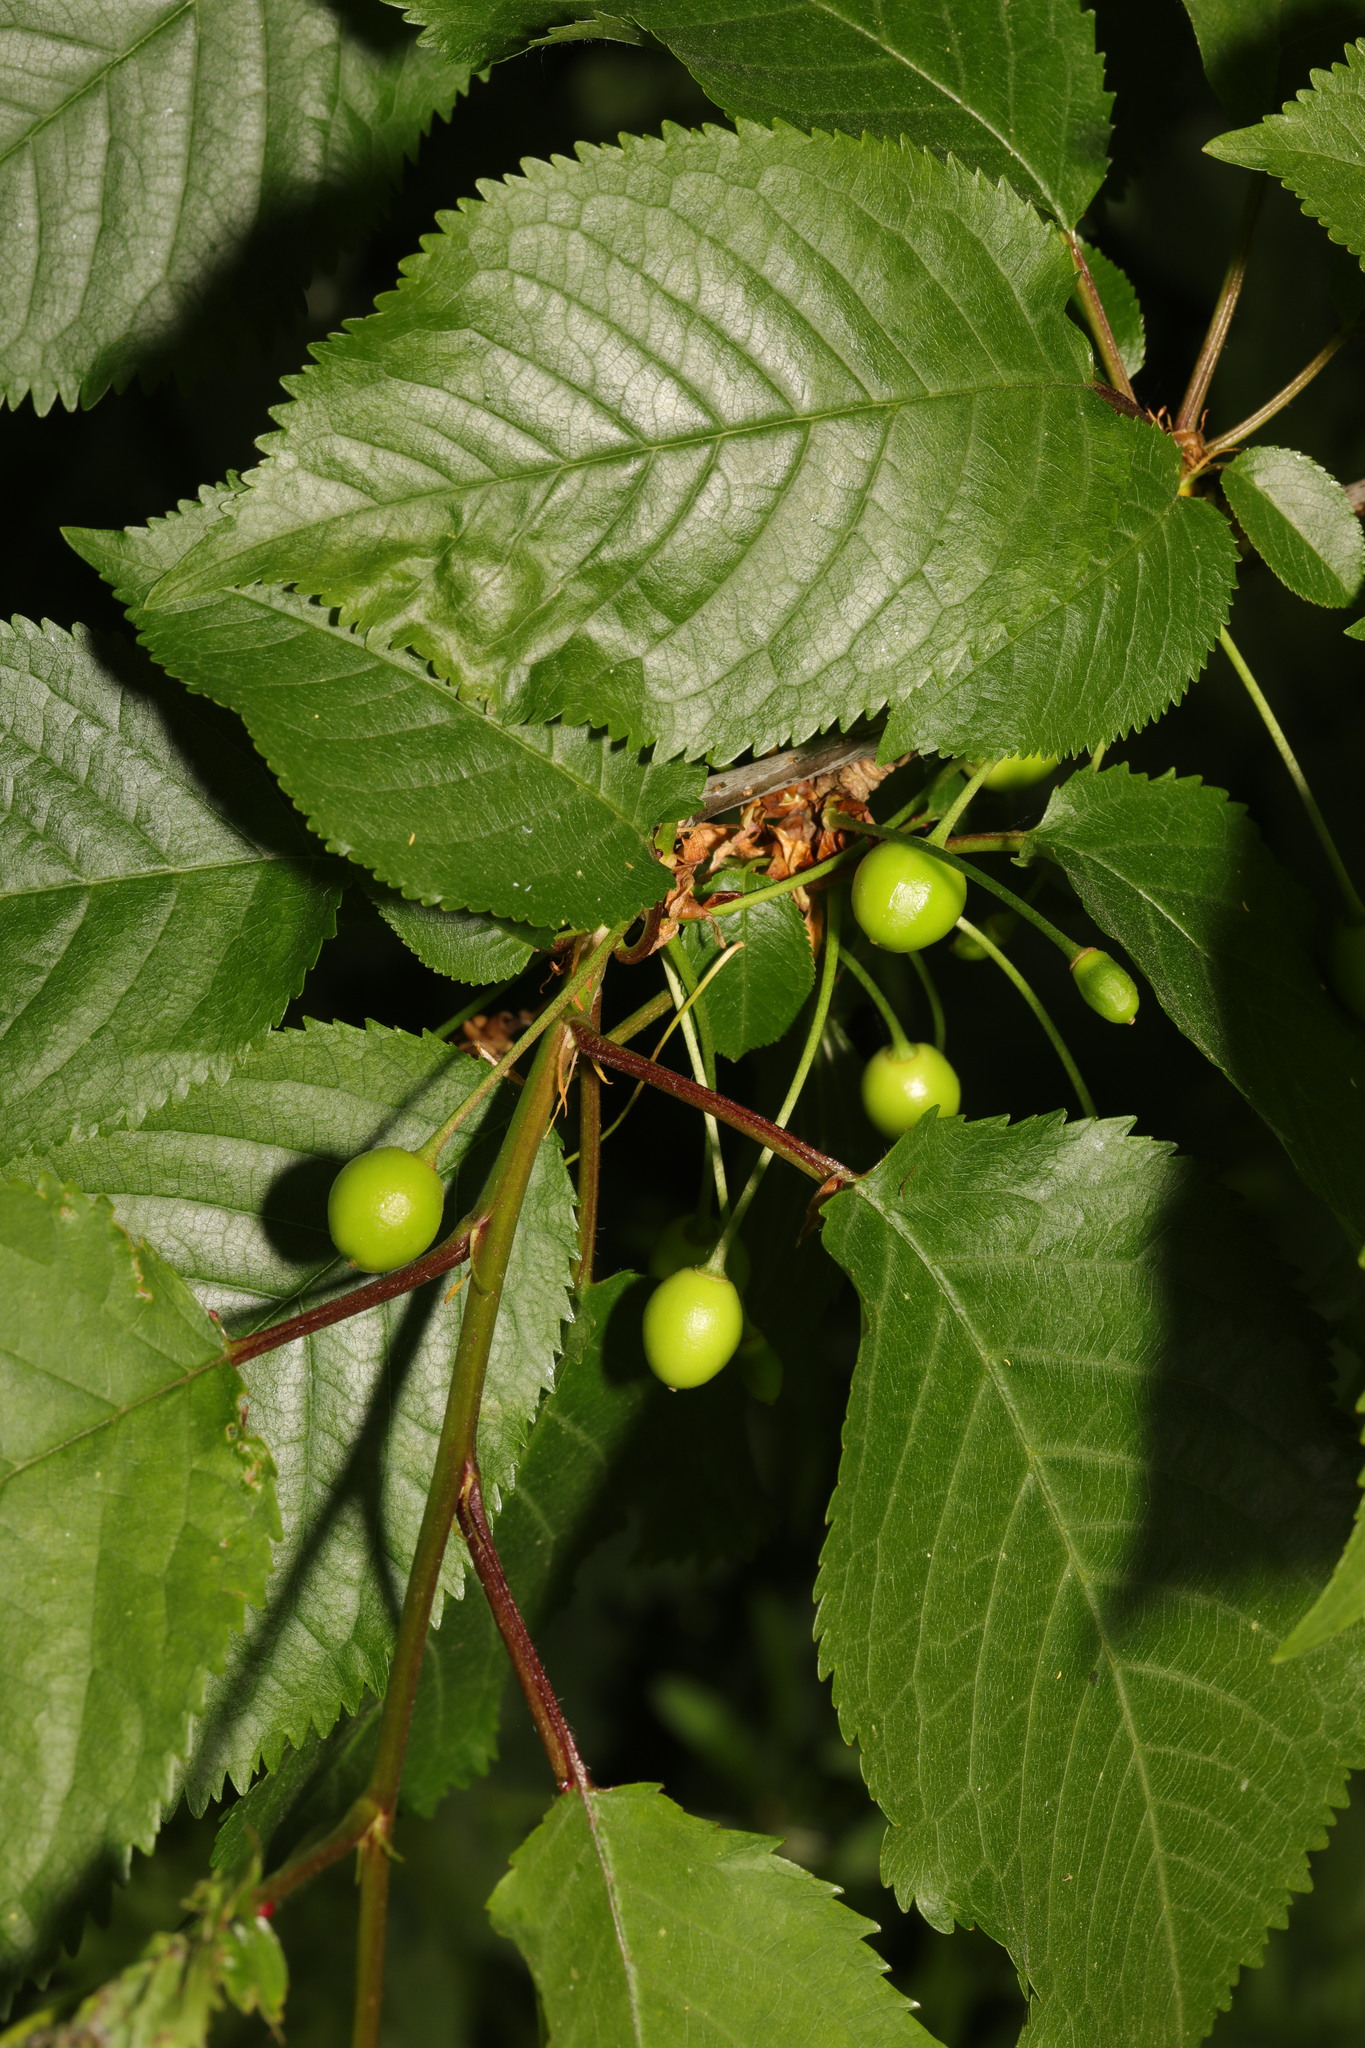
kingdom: Plantae
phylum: Tracheophyta
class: Magnoliopsida
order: Rosales
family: Rosaceae
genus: Prunus
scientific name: Prunus avium
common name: Sweet cherry
